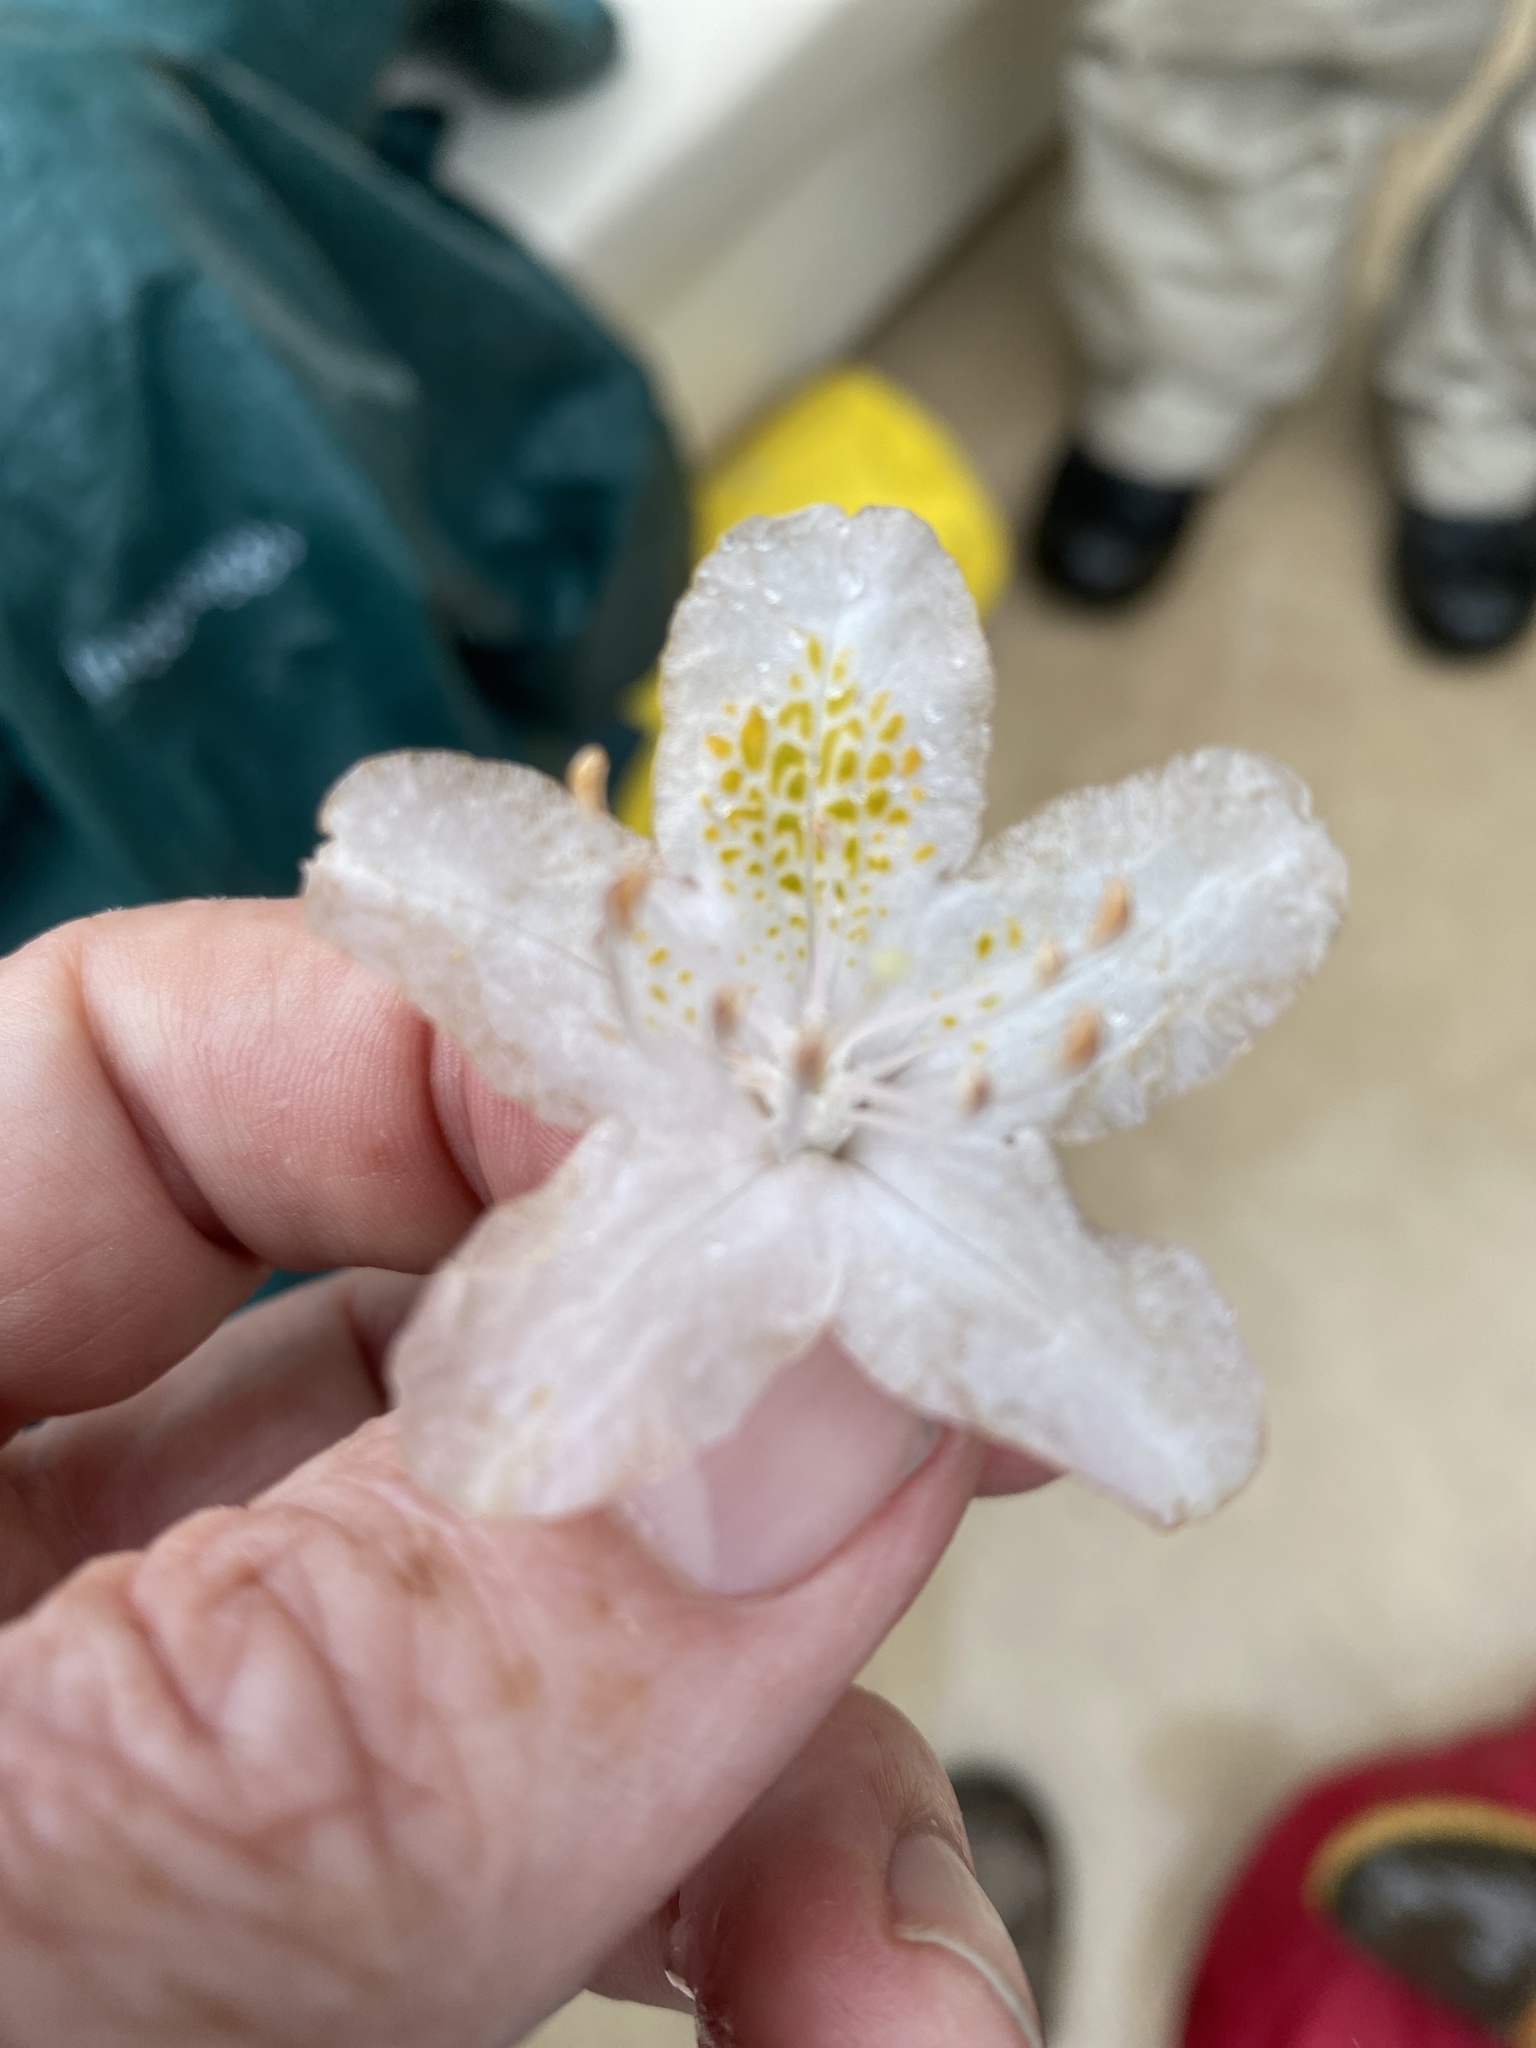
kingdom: Plantae
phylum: Tracheophyta
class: Magnoliopsida
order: Ericales
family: Ericaceae
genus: Rhododendron
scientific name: Rhododendron minus
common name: Piedmont rhododendron
